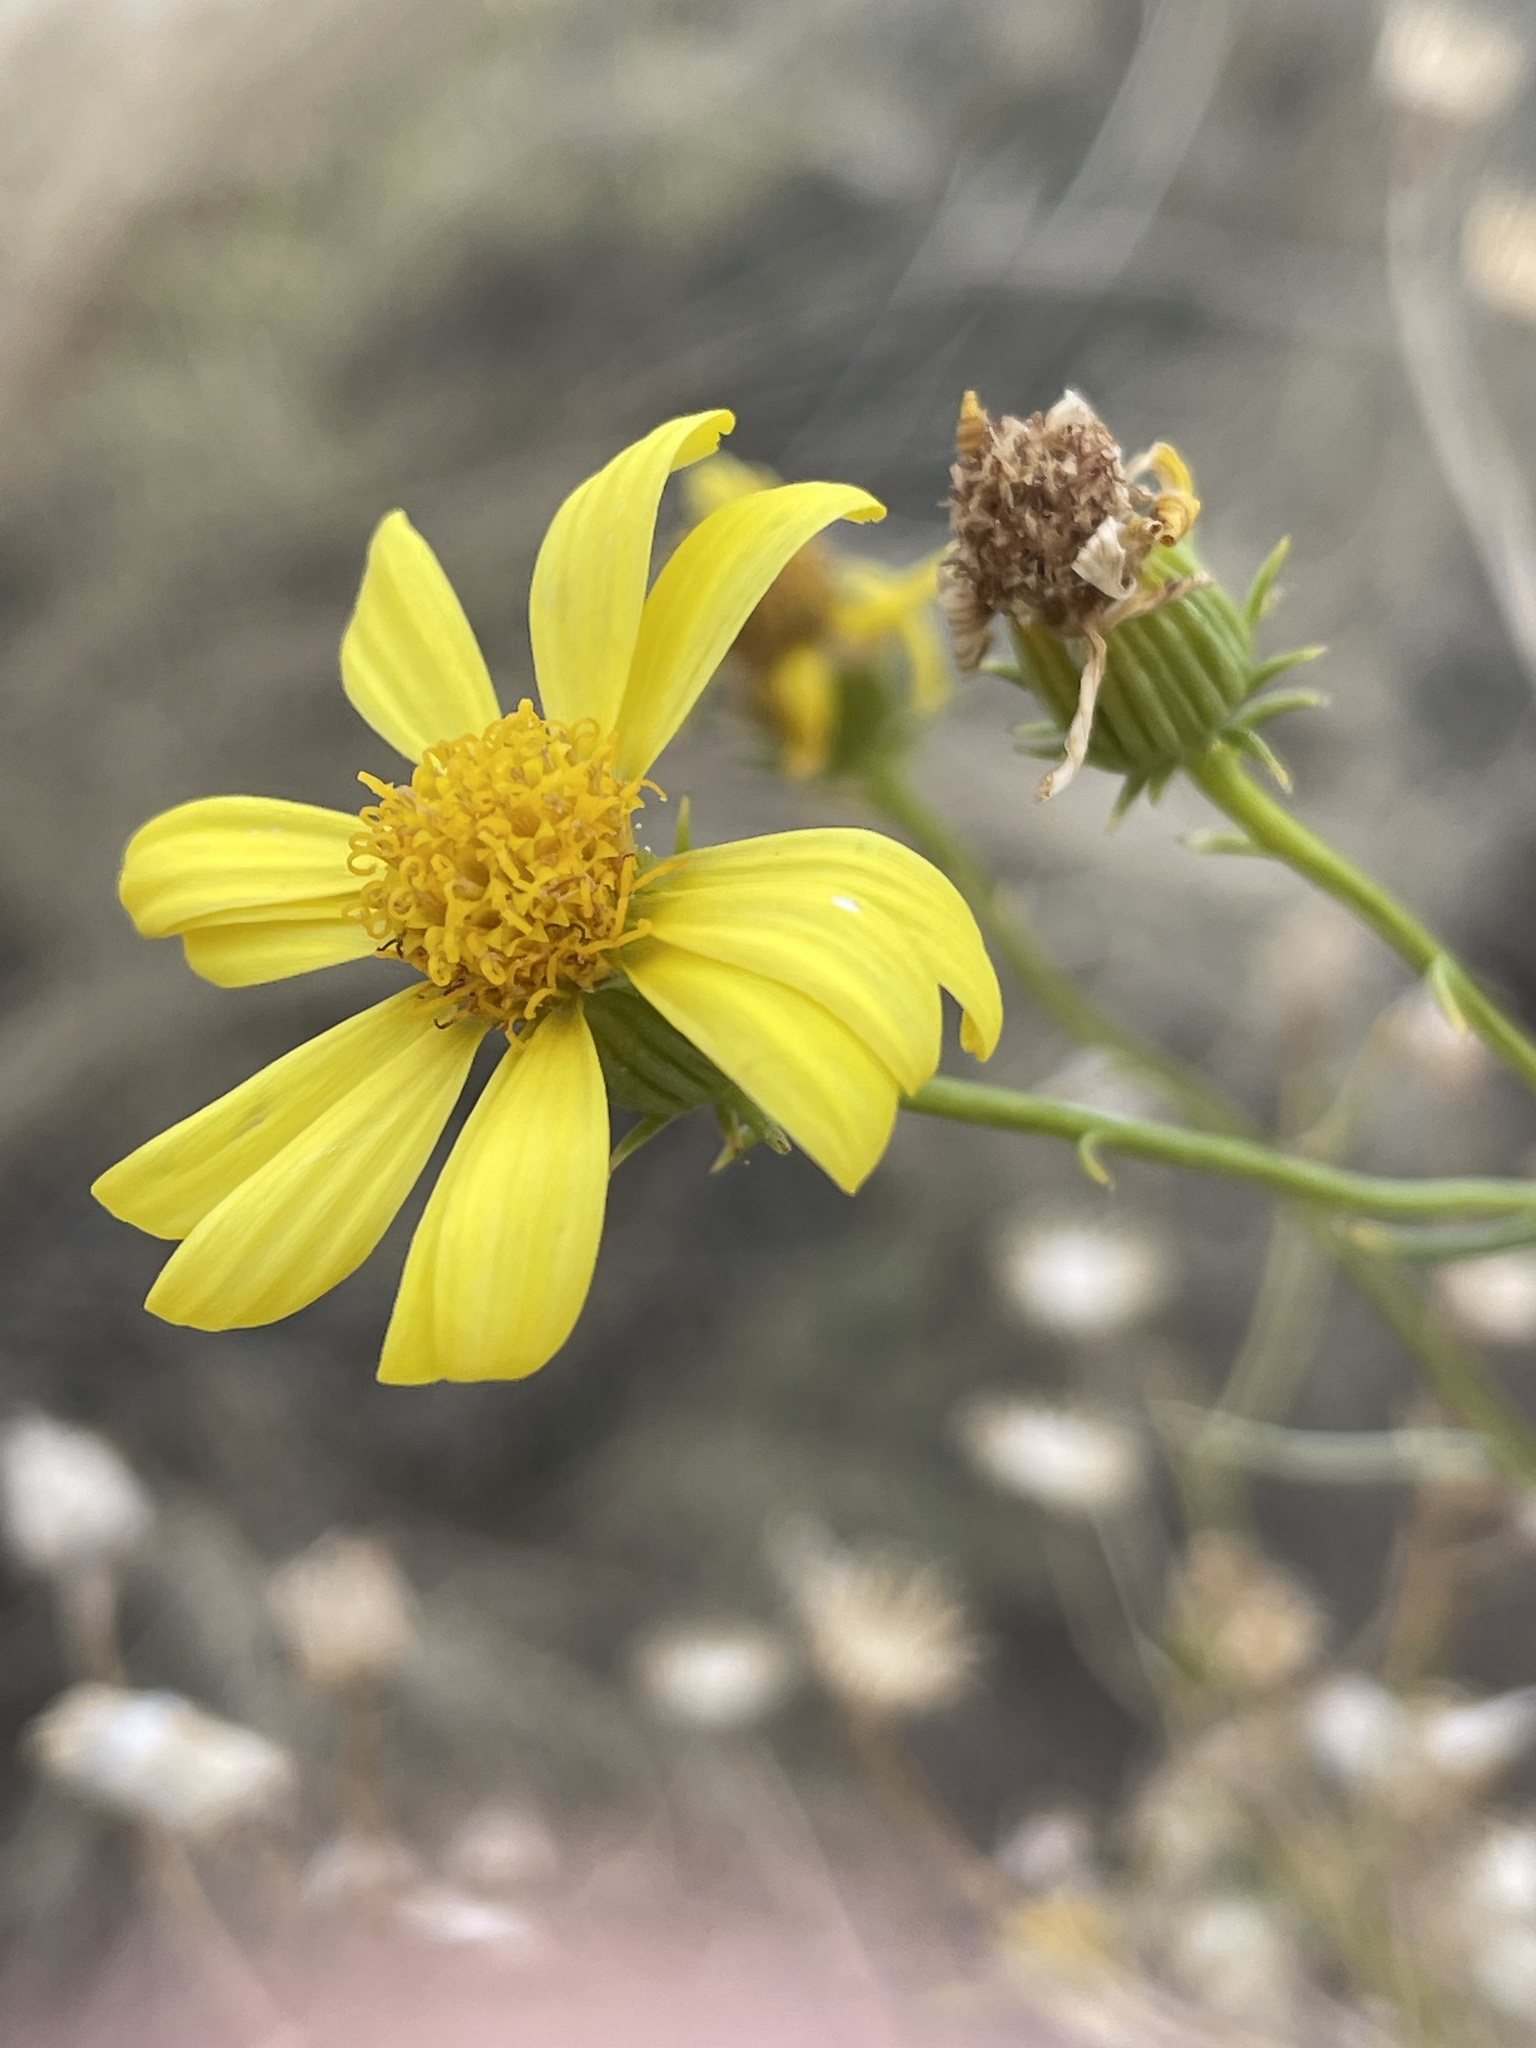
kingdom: Plantae
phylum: Tracheophyta
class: Magnoliopsida
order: Asterales
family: Asteraceae
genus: Senecio
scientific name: Senecio flaccidus
